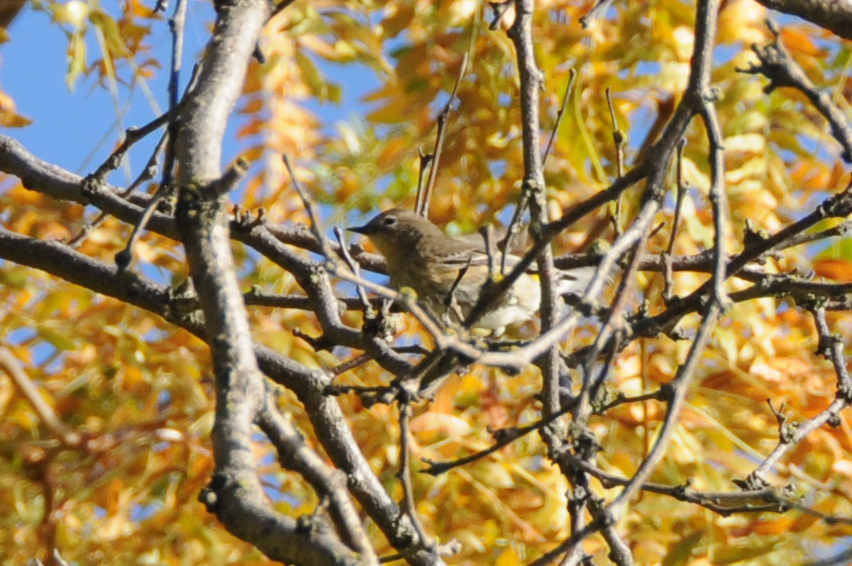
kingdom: Animalia
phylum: Chordata
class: Aves
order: Passeriformes
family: Parulidae
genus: Setophaga
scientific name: Setophaga auduboni
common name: Audubon's warbler
